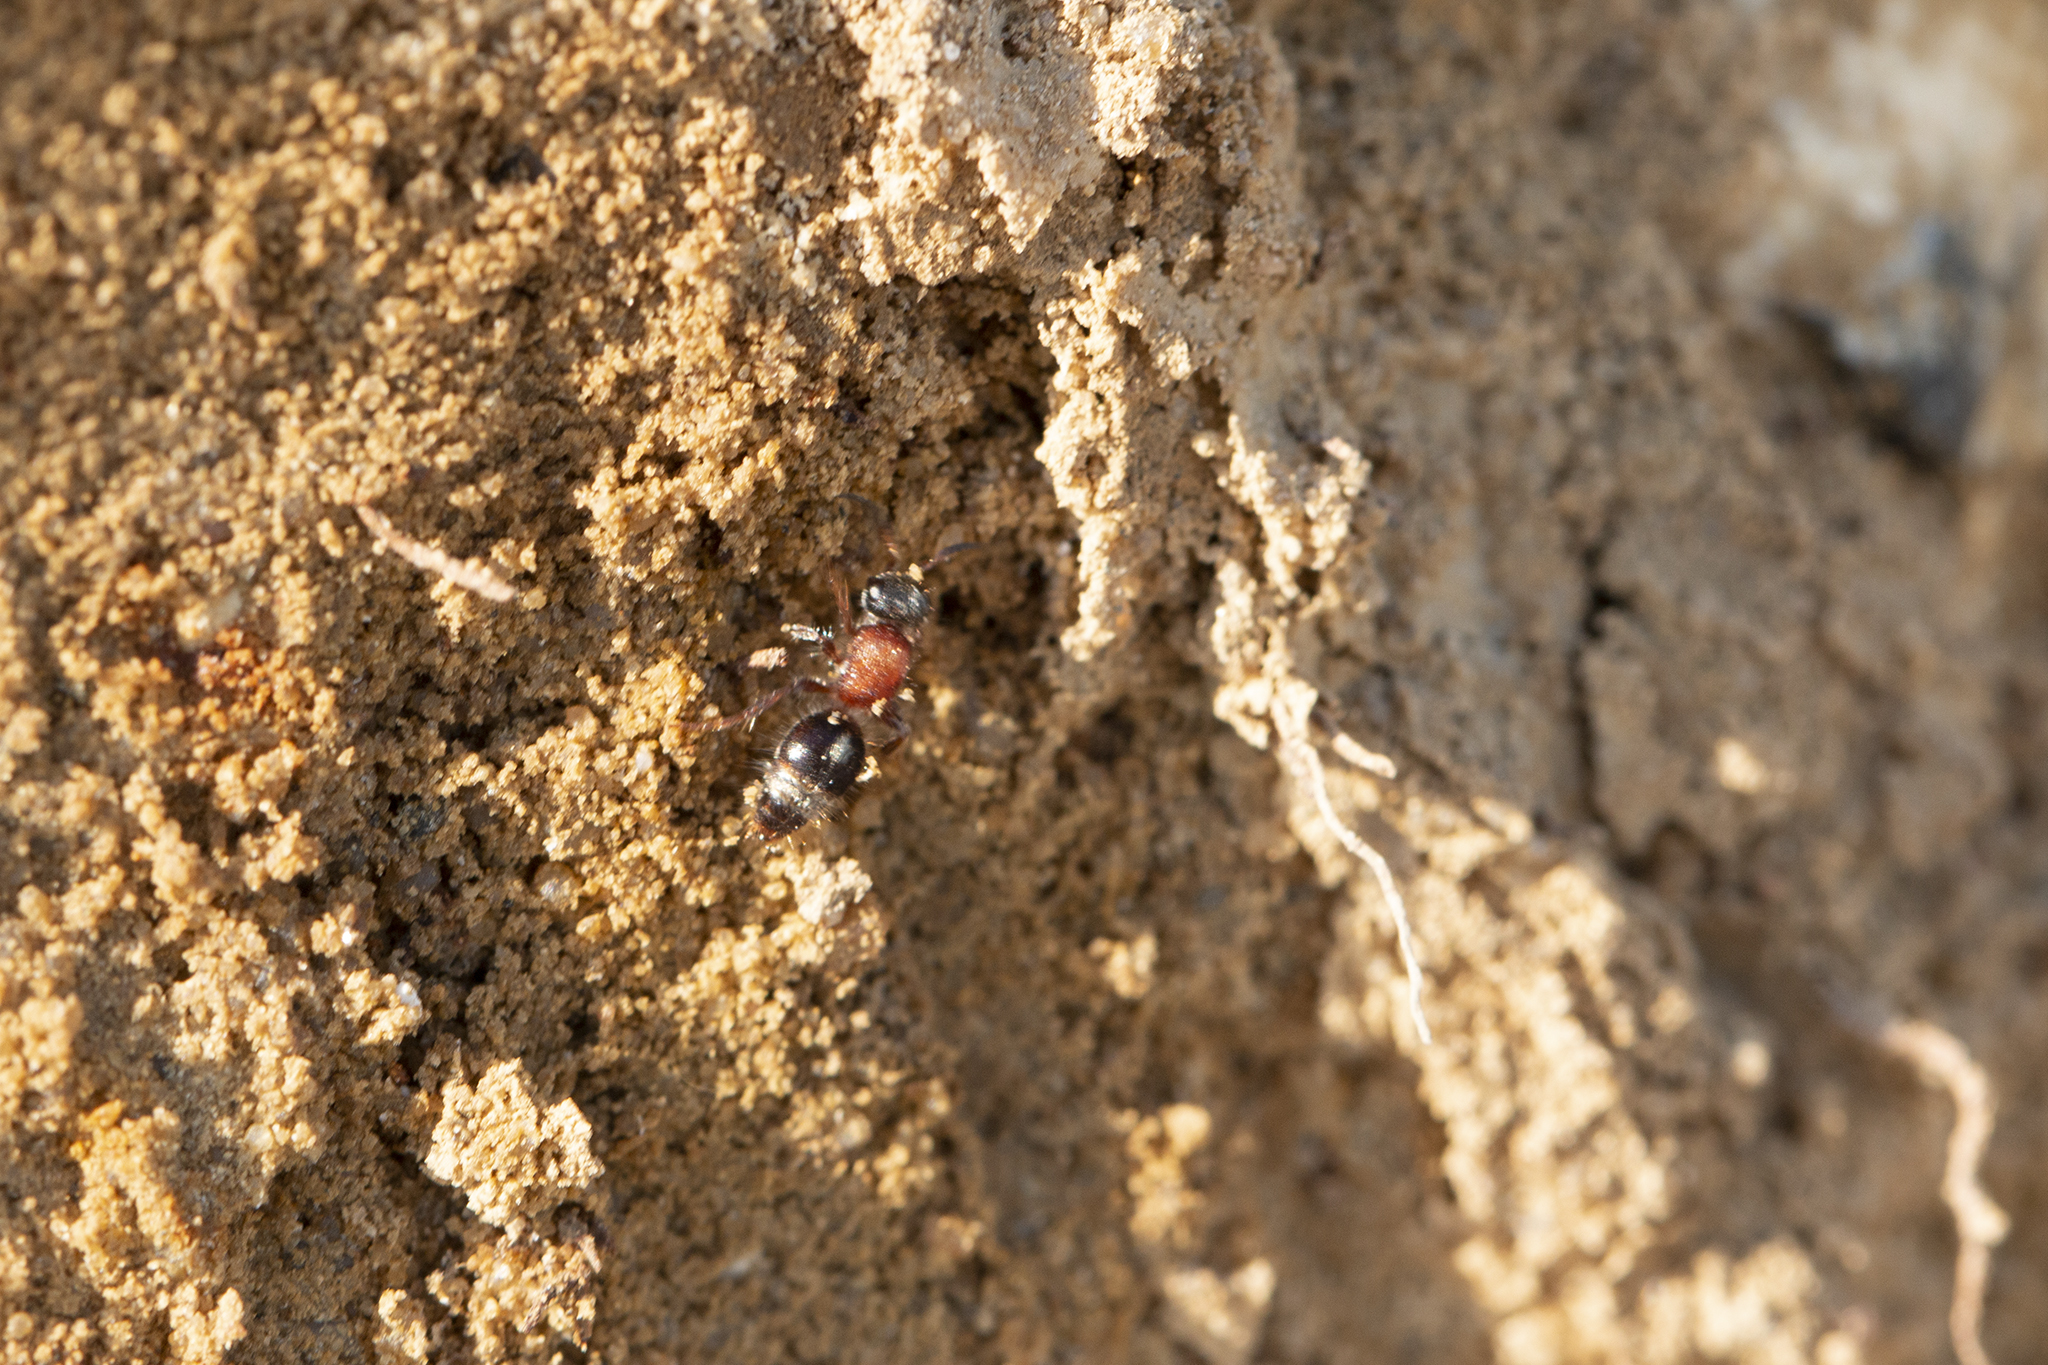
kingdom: Animalia
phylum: Arthropoda
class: Insecta
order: Hymenoptera
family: Mutillidae
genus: Smicromyrme
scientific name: Smicromyrme rufipes
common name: Small velvet ant
